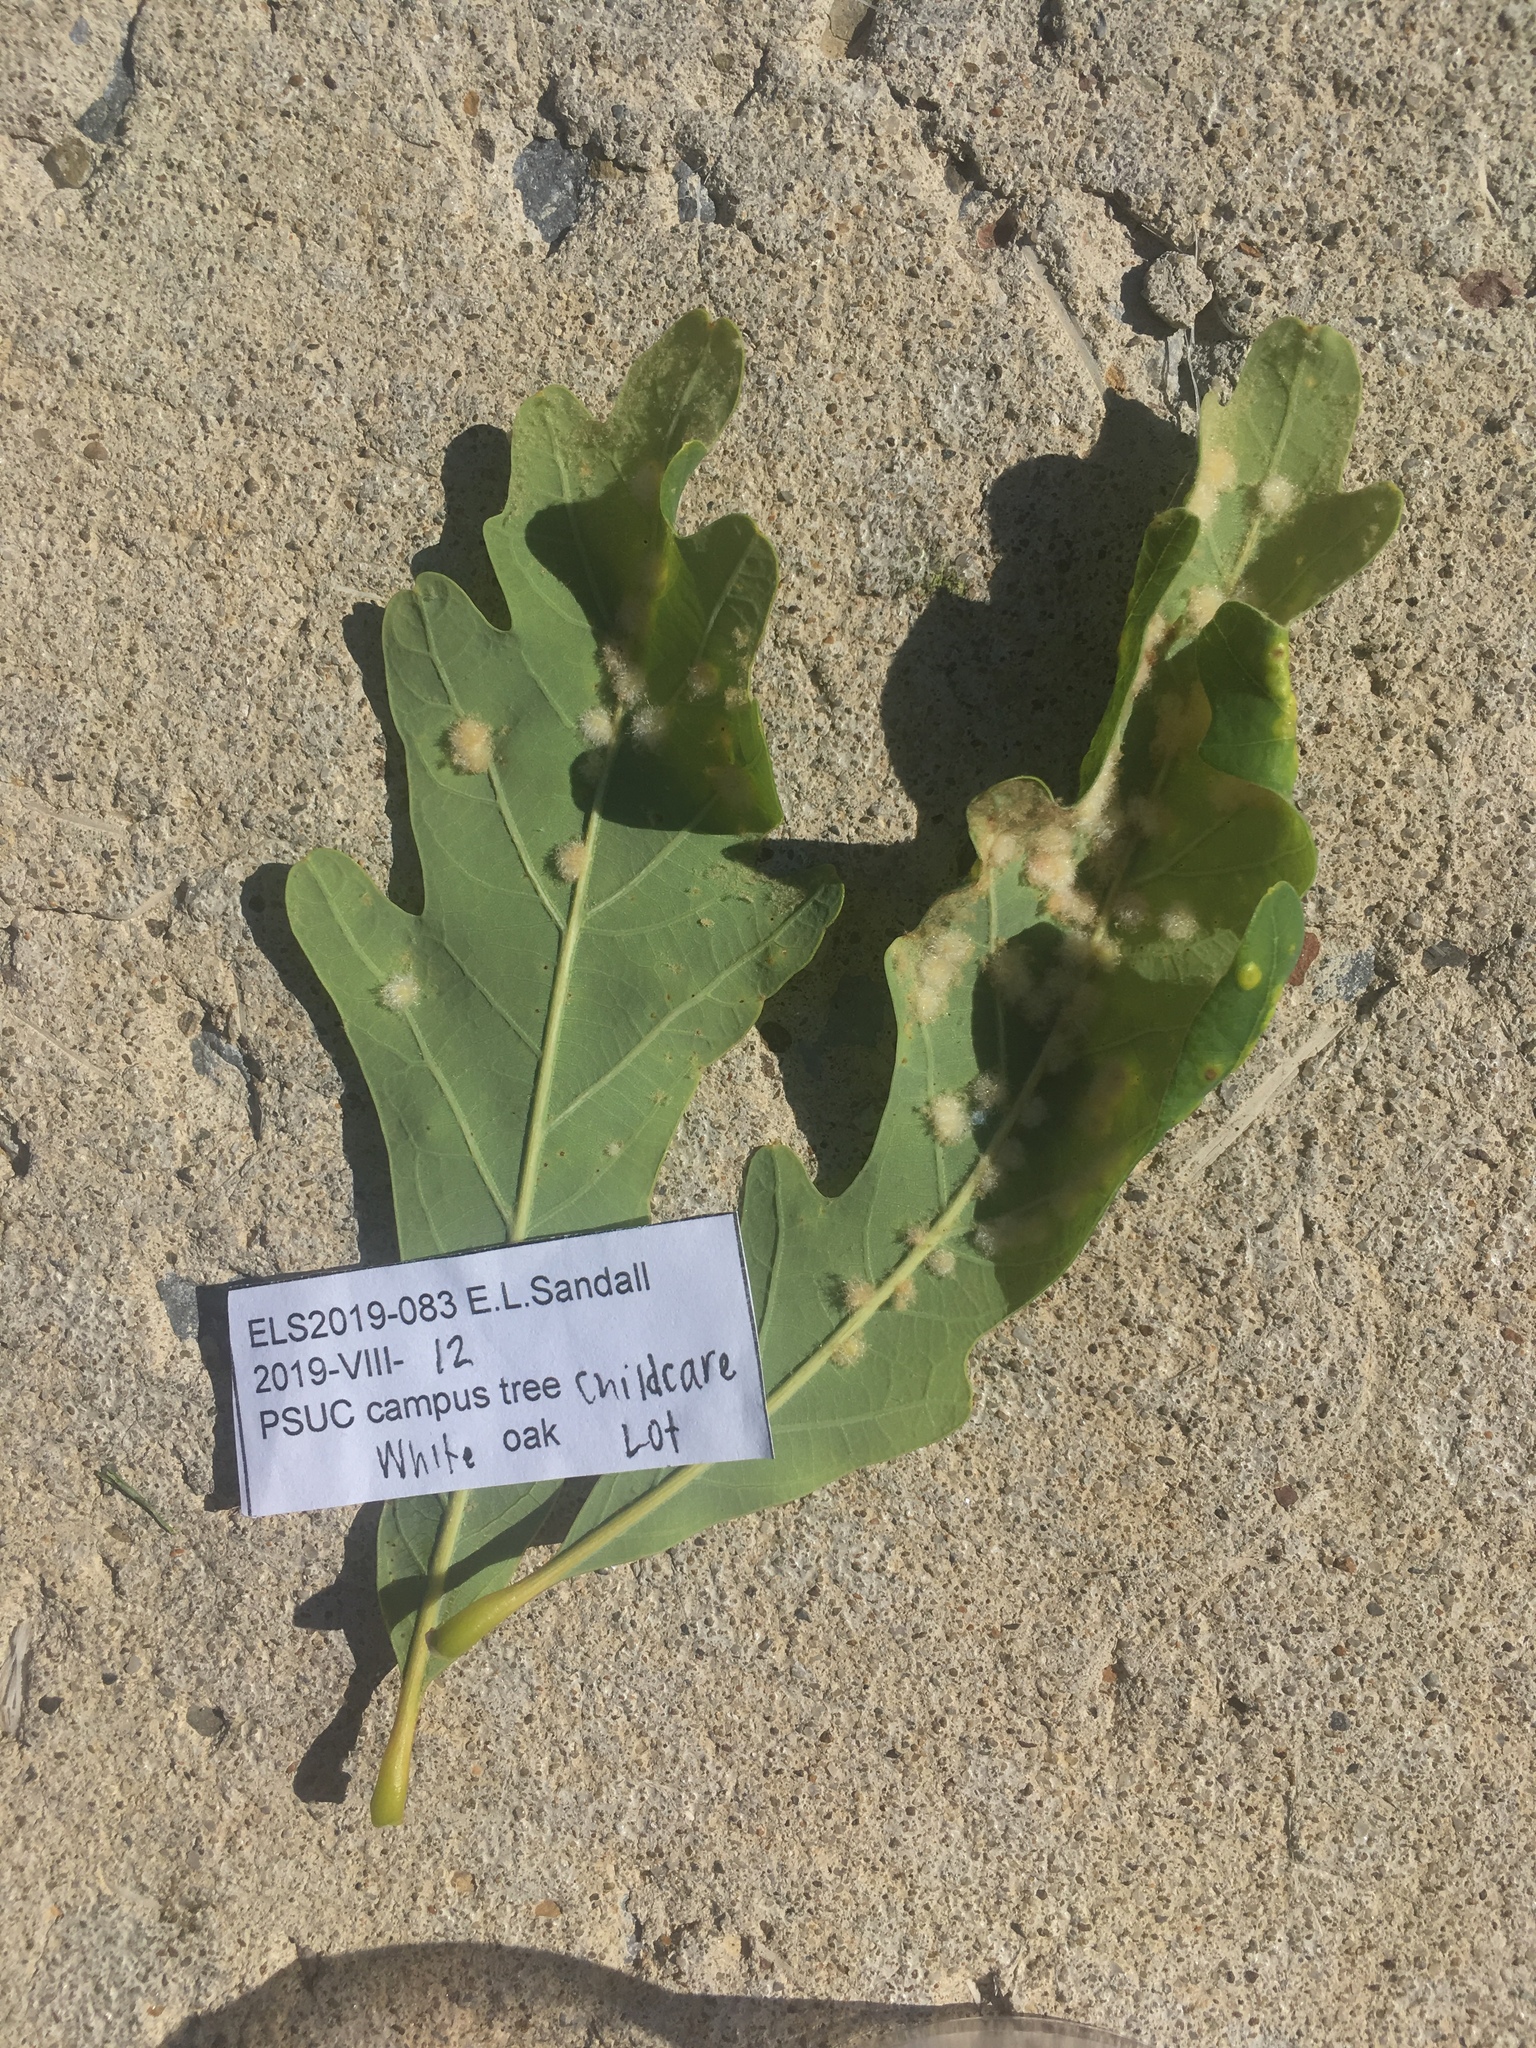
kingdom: Animalia
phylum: Arthropoda
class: Insecta
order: Hymenoptera
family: Cynipidae
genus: Neuroterus
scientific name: Neuroterus quercusverrucarum
